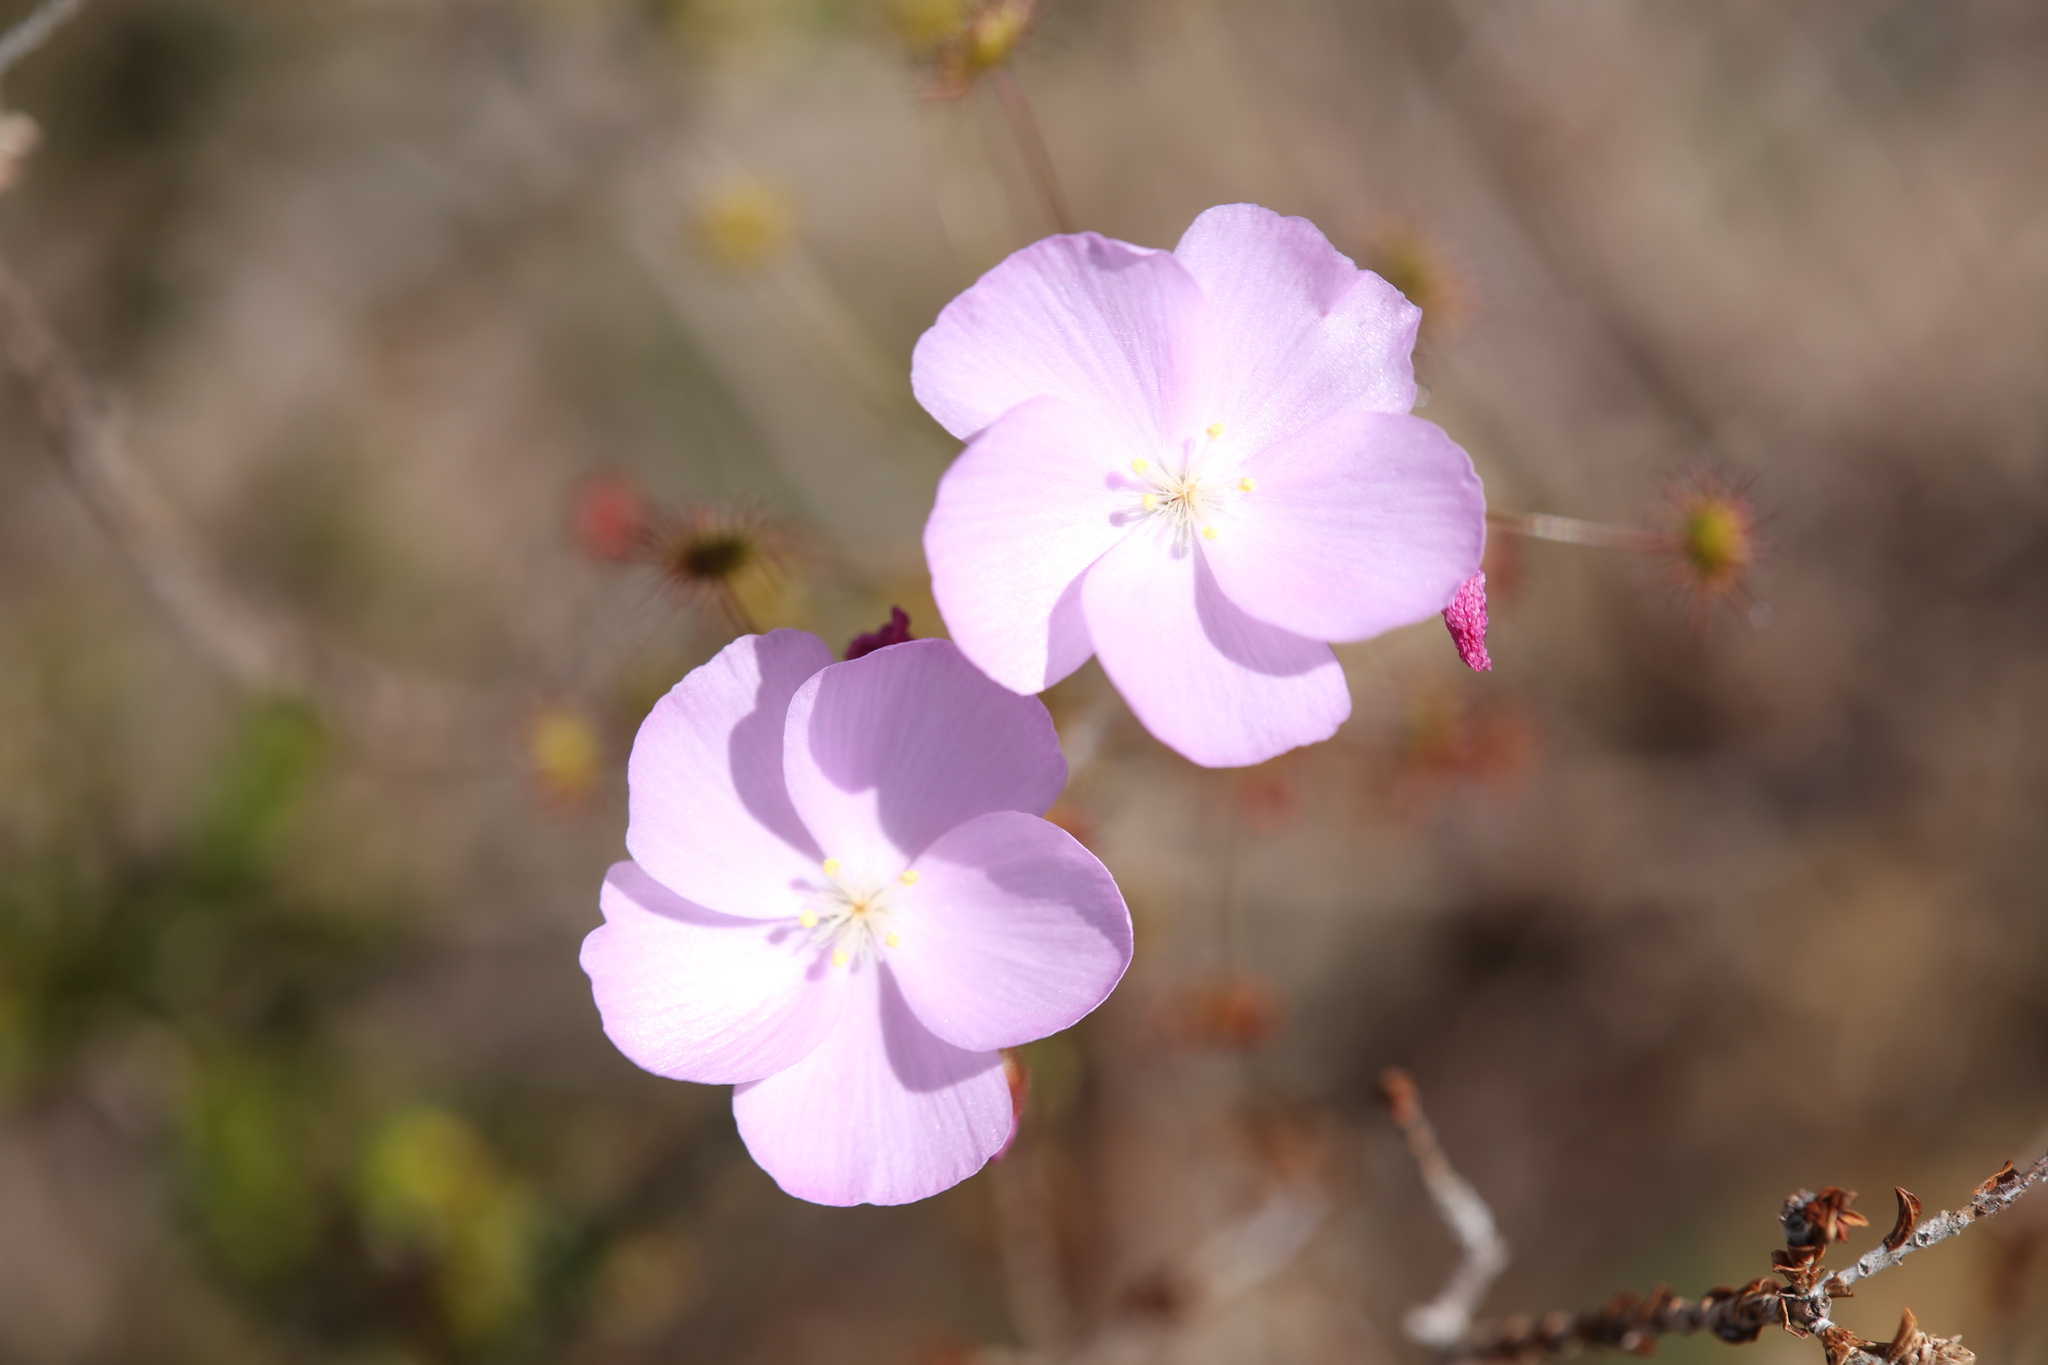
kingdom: Plantae
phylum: Tracheophyta
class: Magnoliopsida
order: Caryophyllales
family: Droseraceae
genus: Drosera
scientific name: Drosera
